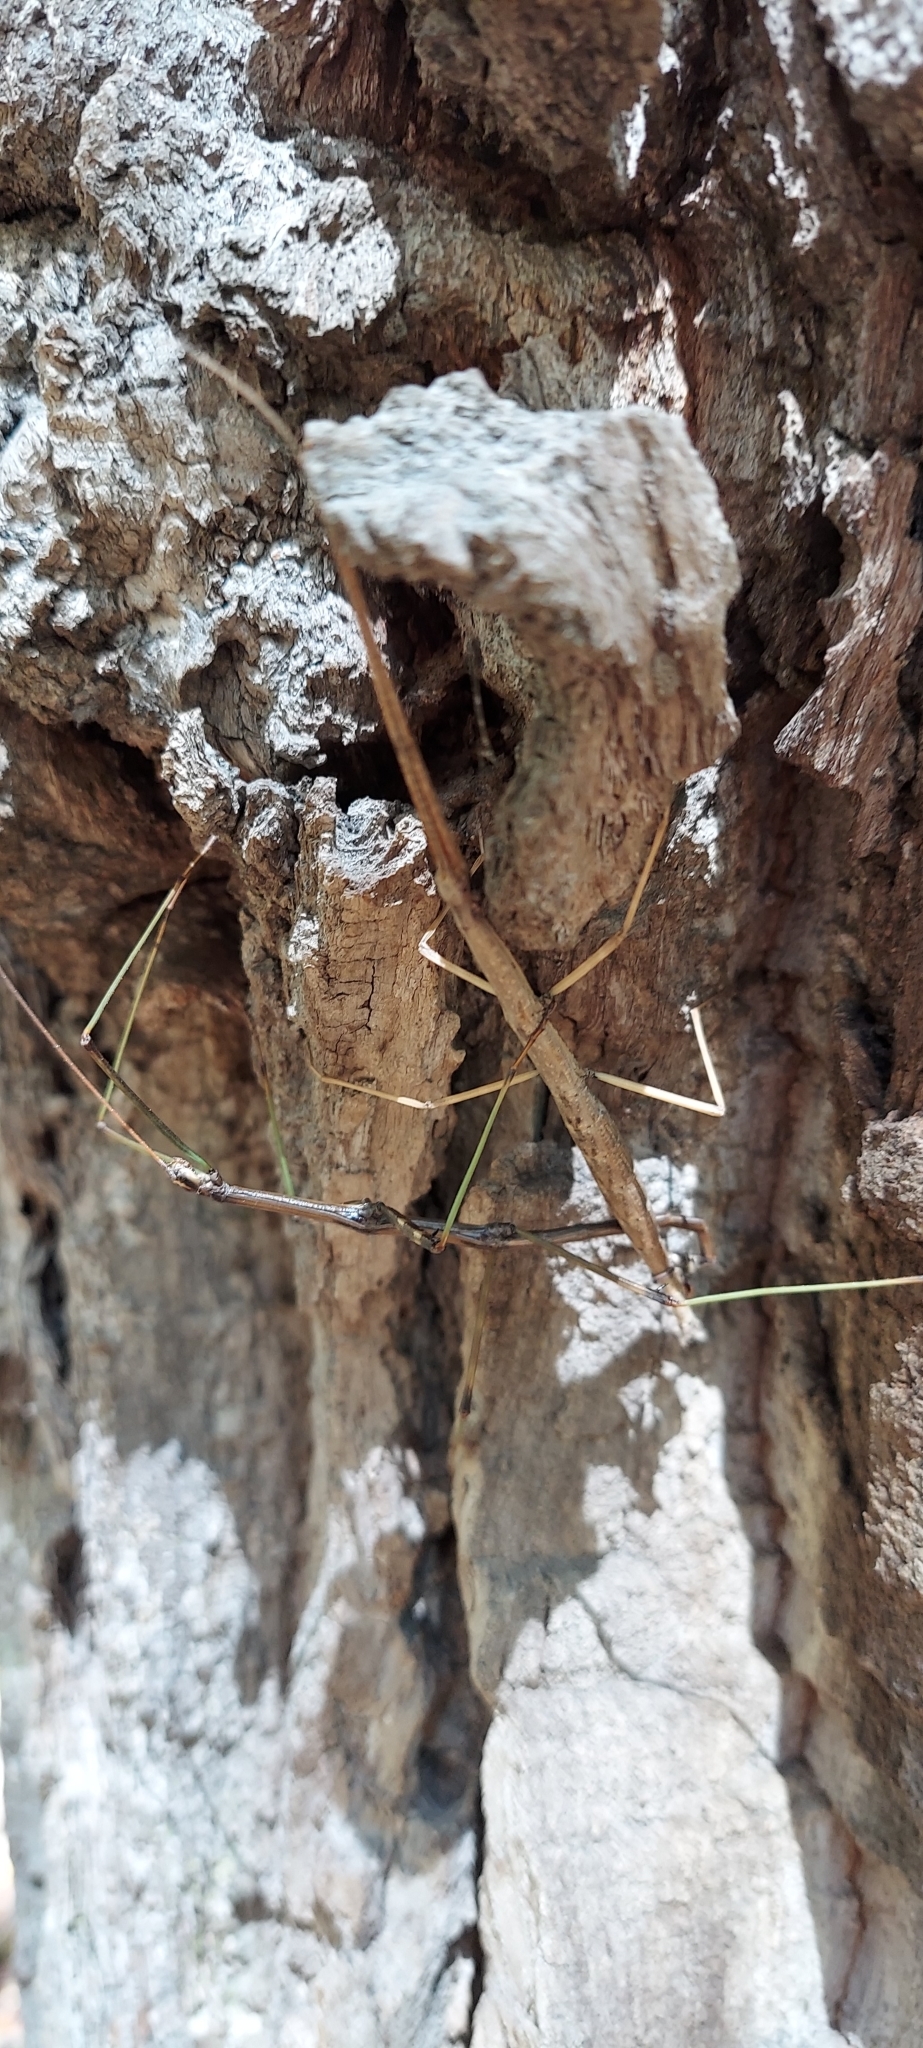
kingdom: Animalia
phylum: Arthropoda
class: Insecta
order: Phasmida
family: Diapheromeridae
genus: Diapheromera
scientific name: Diapheromera femorata
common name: Common american walkingstick
